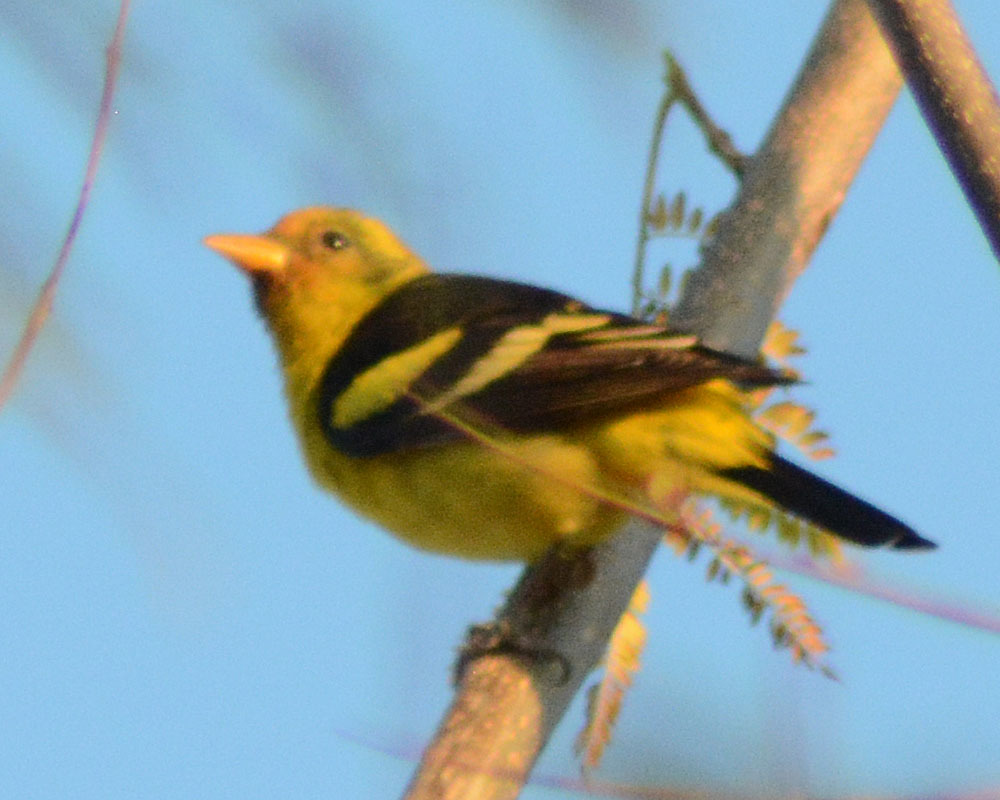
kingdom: Animalia
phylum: Chordata
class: Aves
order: Passeriformes
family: Cardinalidae
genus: Piranga
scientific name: Piranga ludoviciana
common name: Western tanager
